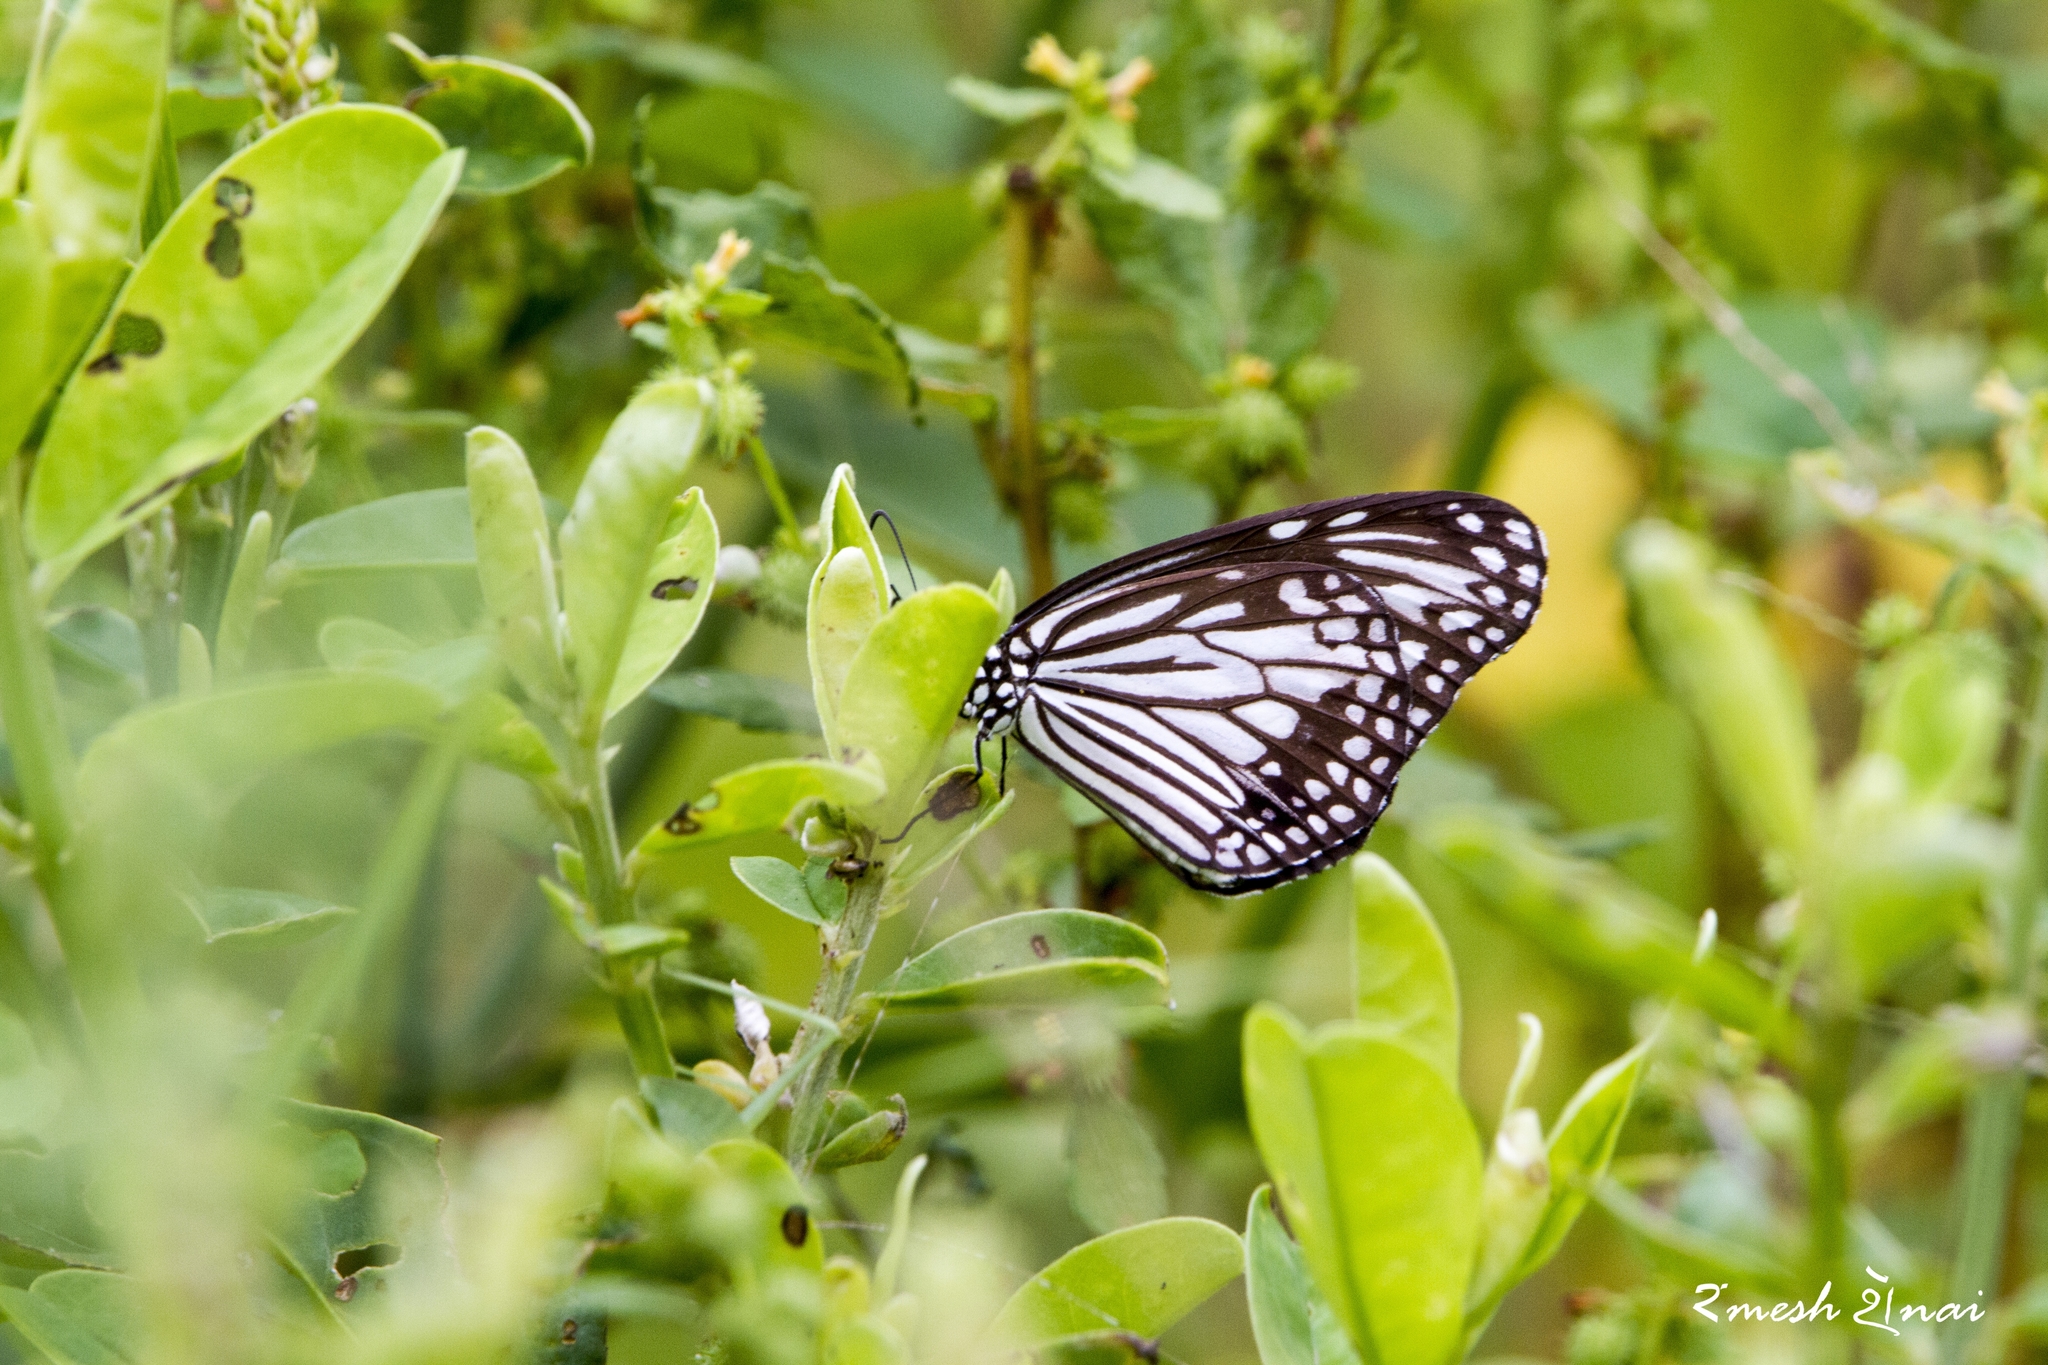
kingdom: Animalia
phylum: Arthropoda
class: Insecta
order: Lepidoptera
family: Nymphalidae
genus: Parantica
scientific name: Parantica aglea
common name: Glassy tiger
